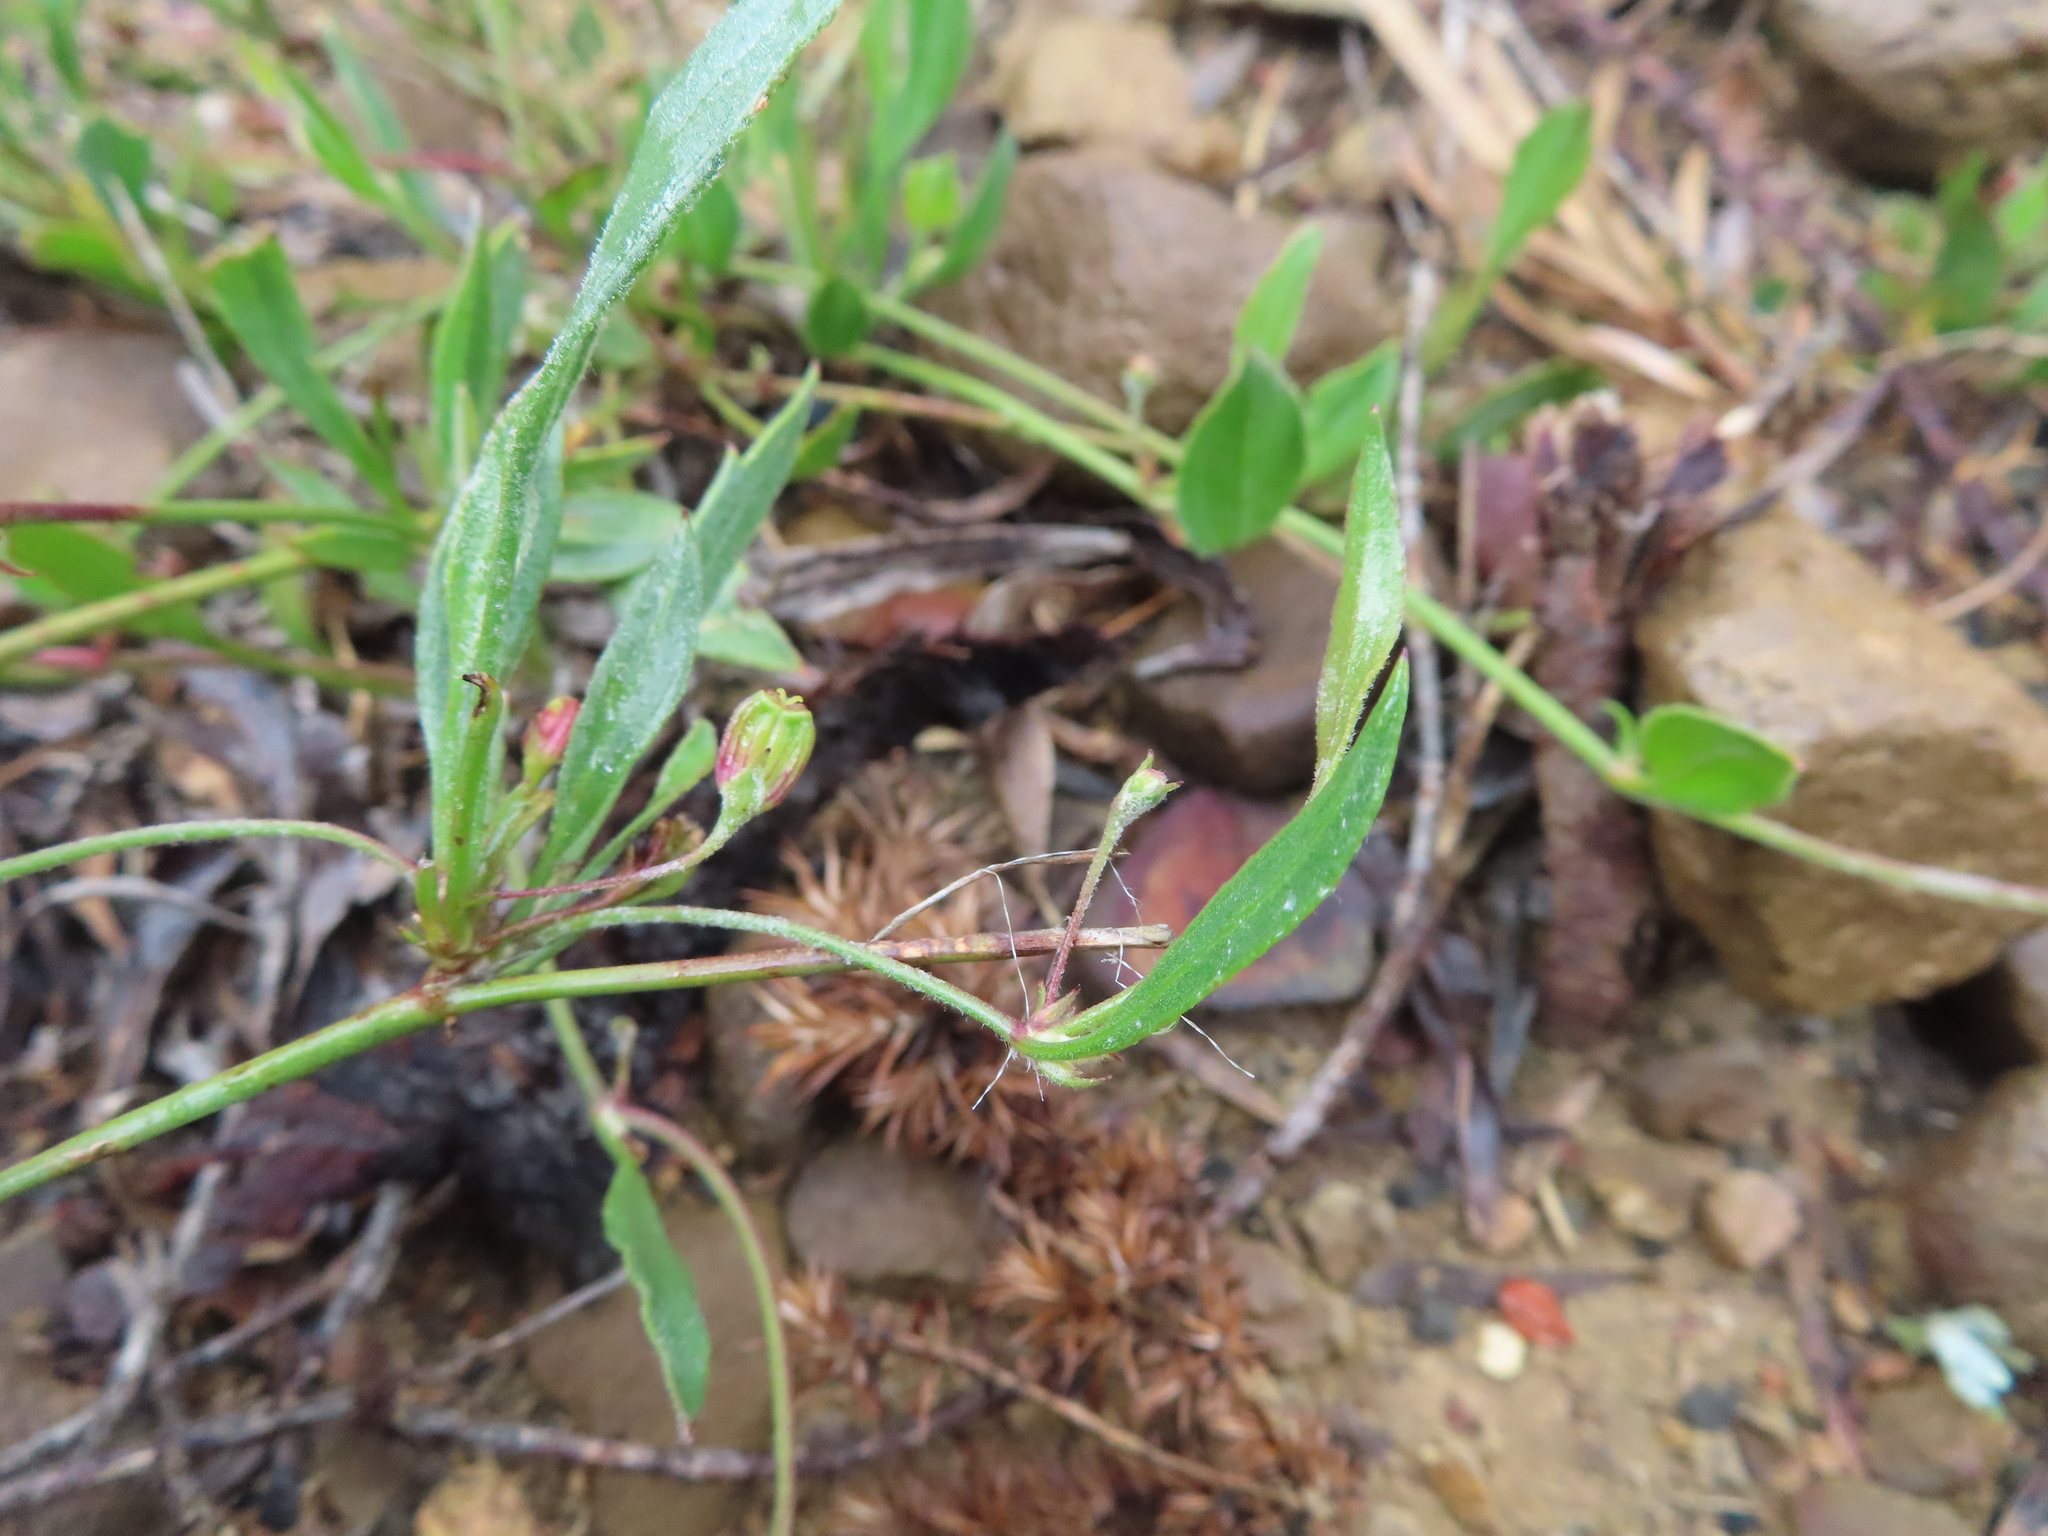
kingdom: Plantae
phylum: Tracheophyta
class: Magnoliopsida
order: Apiales
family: Apiaceae
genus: Centella
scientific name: Centella glabrata
